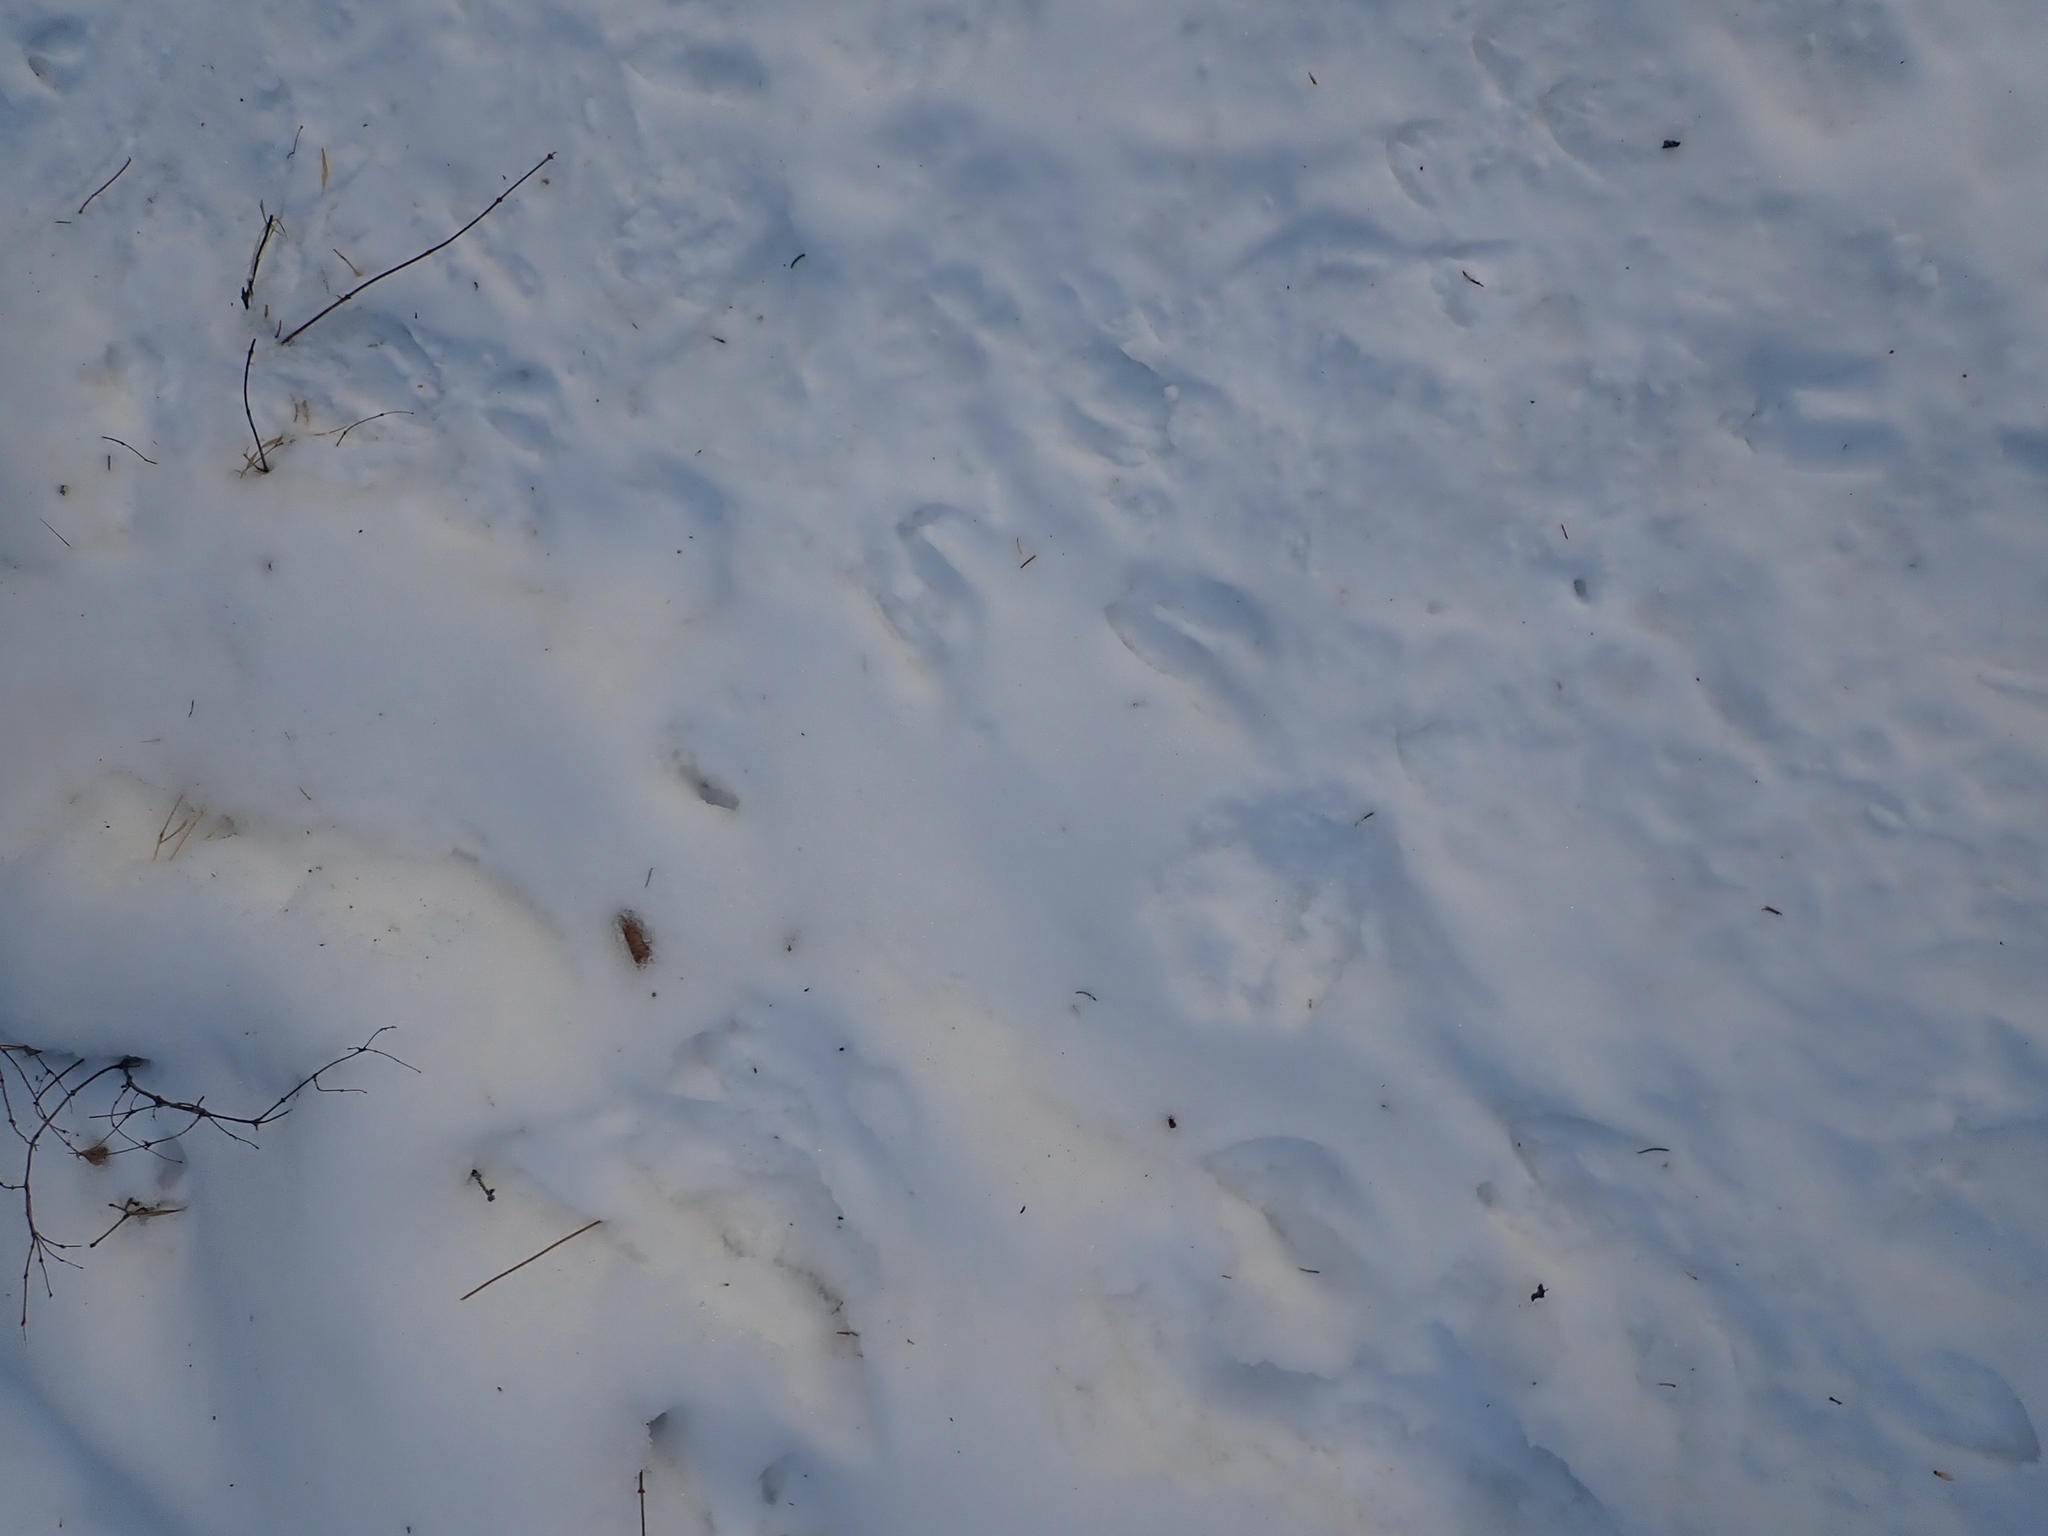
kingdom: Animalia
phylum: Chordata
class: Mammalia
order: Artiodactyla
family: Cervidae
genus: Odocoileus
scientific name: Odocoileus virginianus
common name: White-tailed deer
